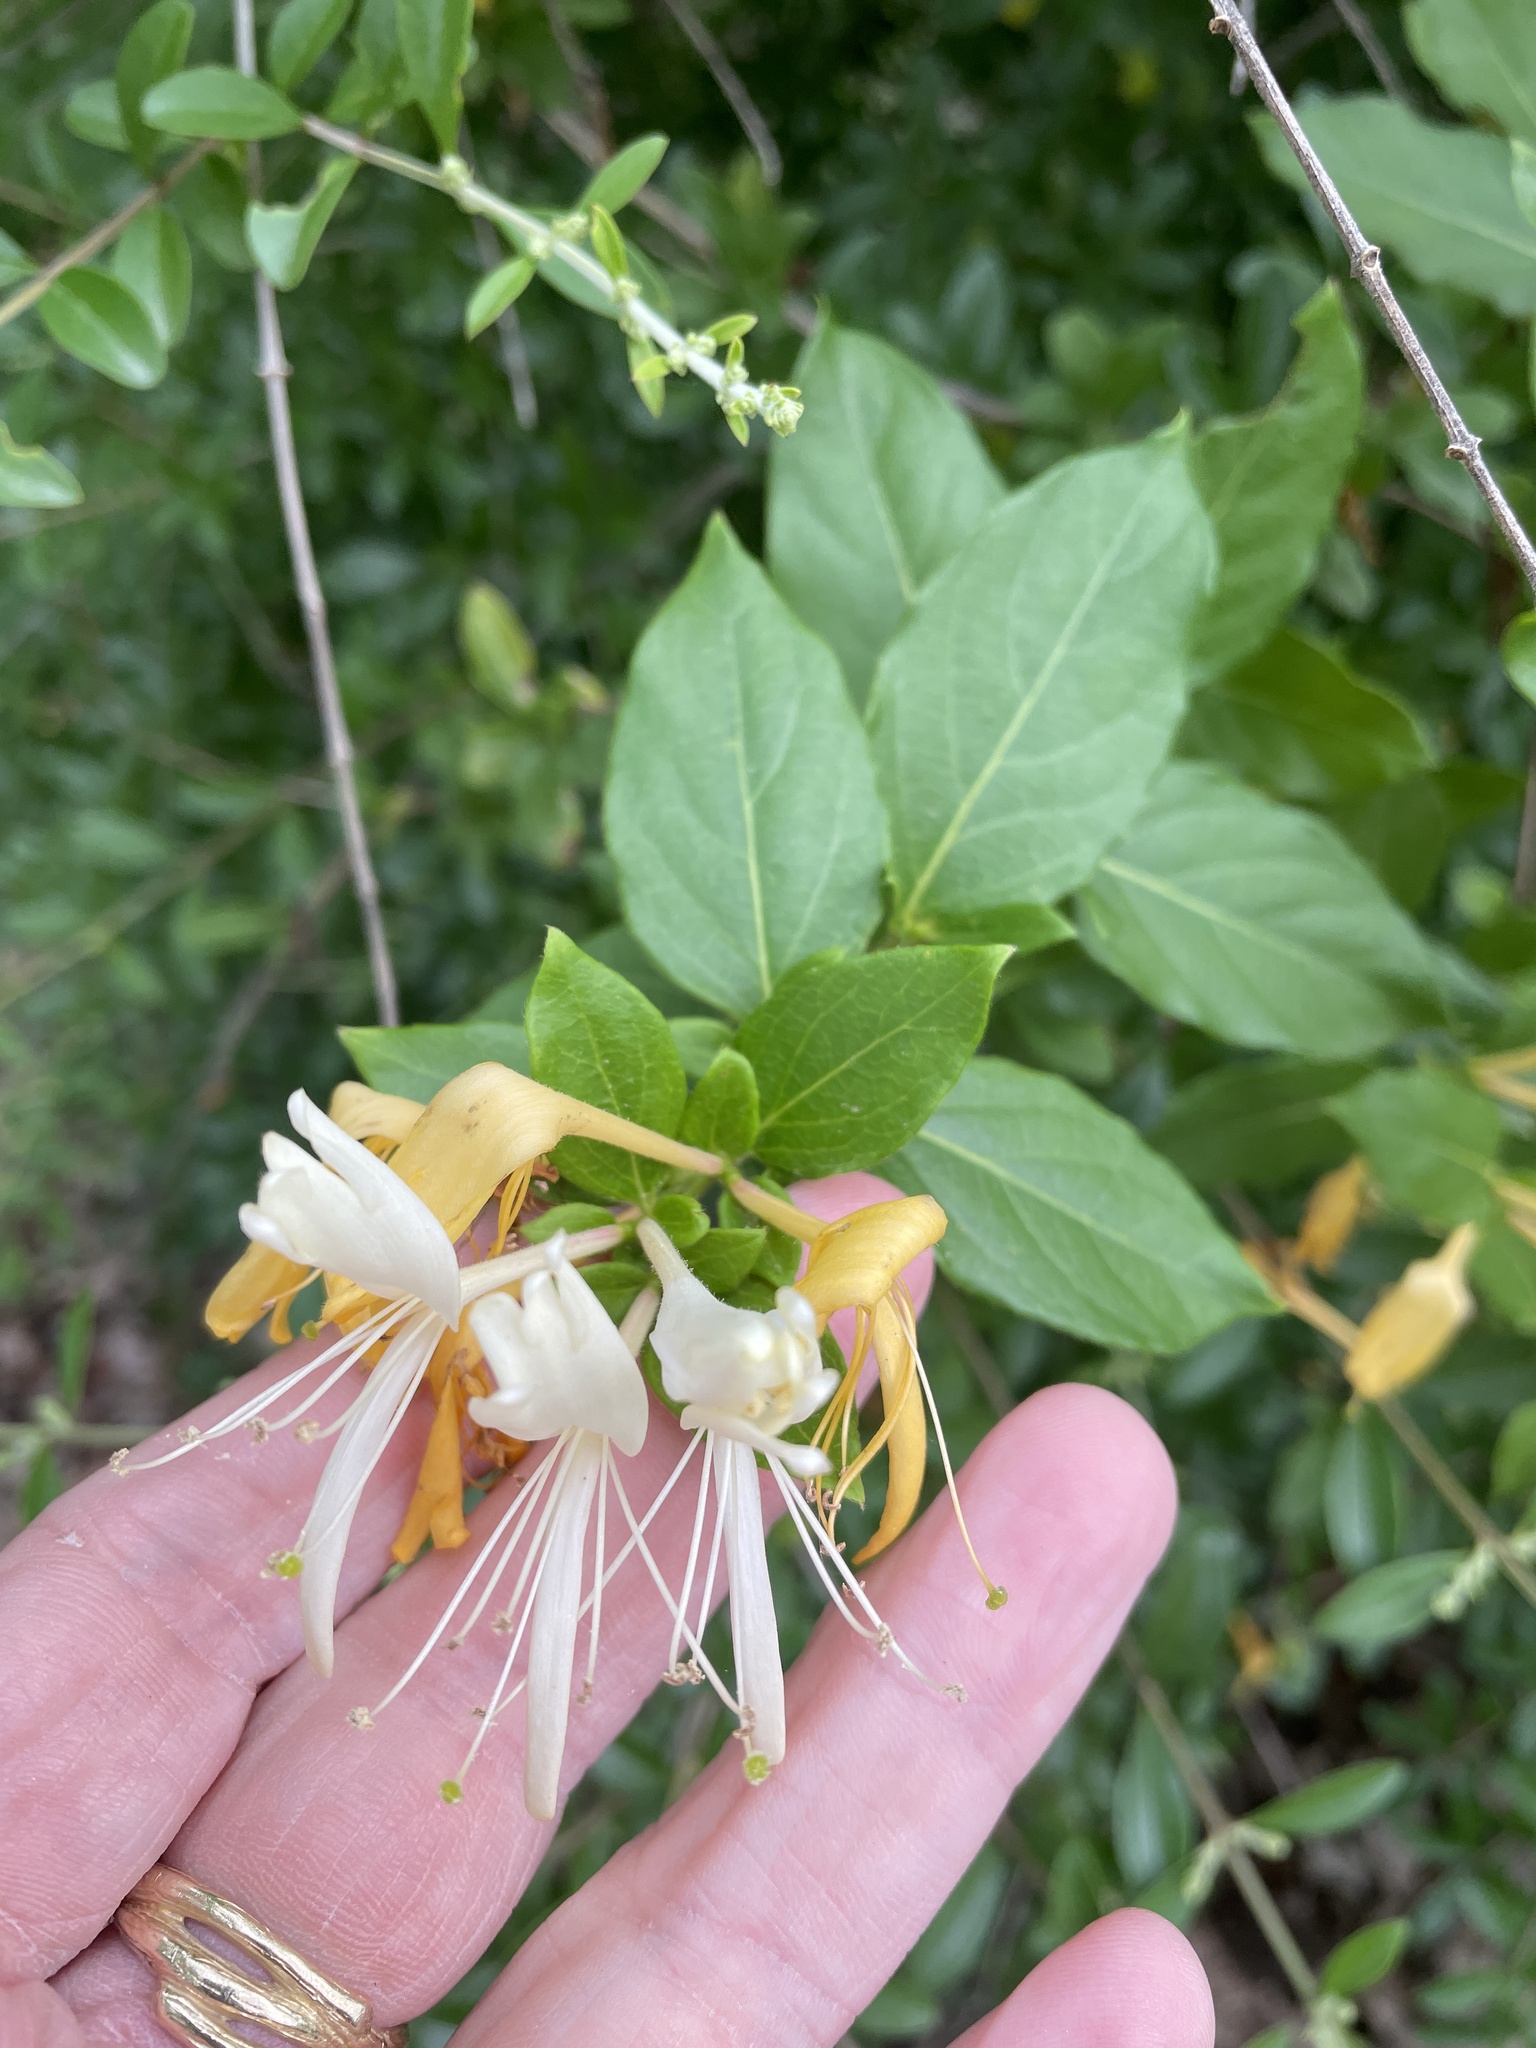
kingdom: Plantae
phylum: Tracheophyta
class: Magnoliopsida
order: Dipsacales
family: Caprifoliaceae
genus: Lonicera
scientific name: Lonicera japonica
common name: Japanese honeysuckle
